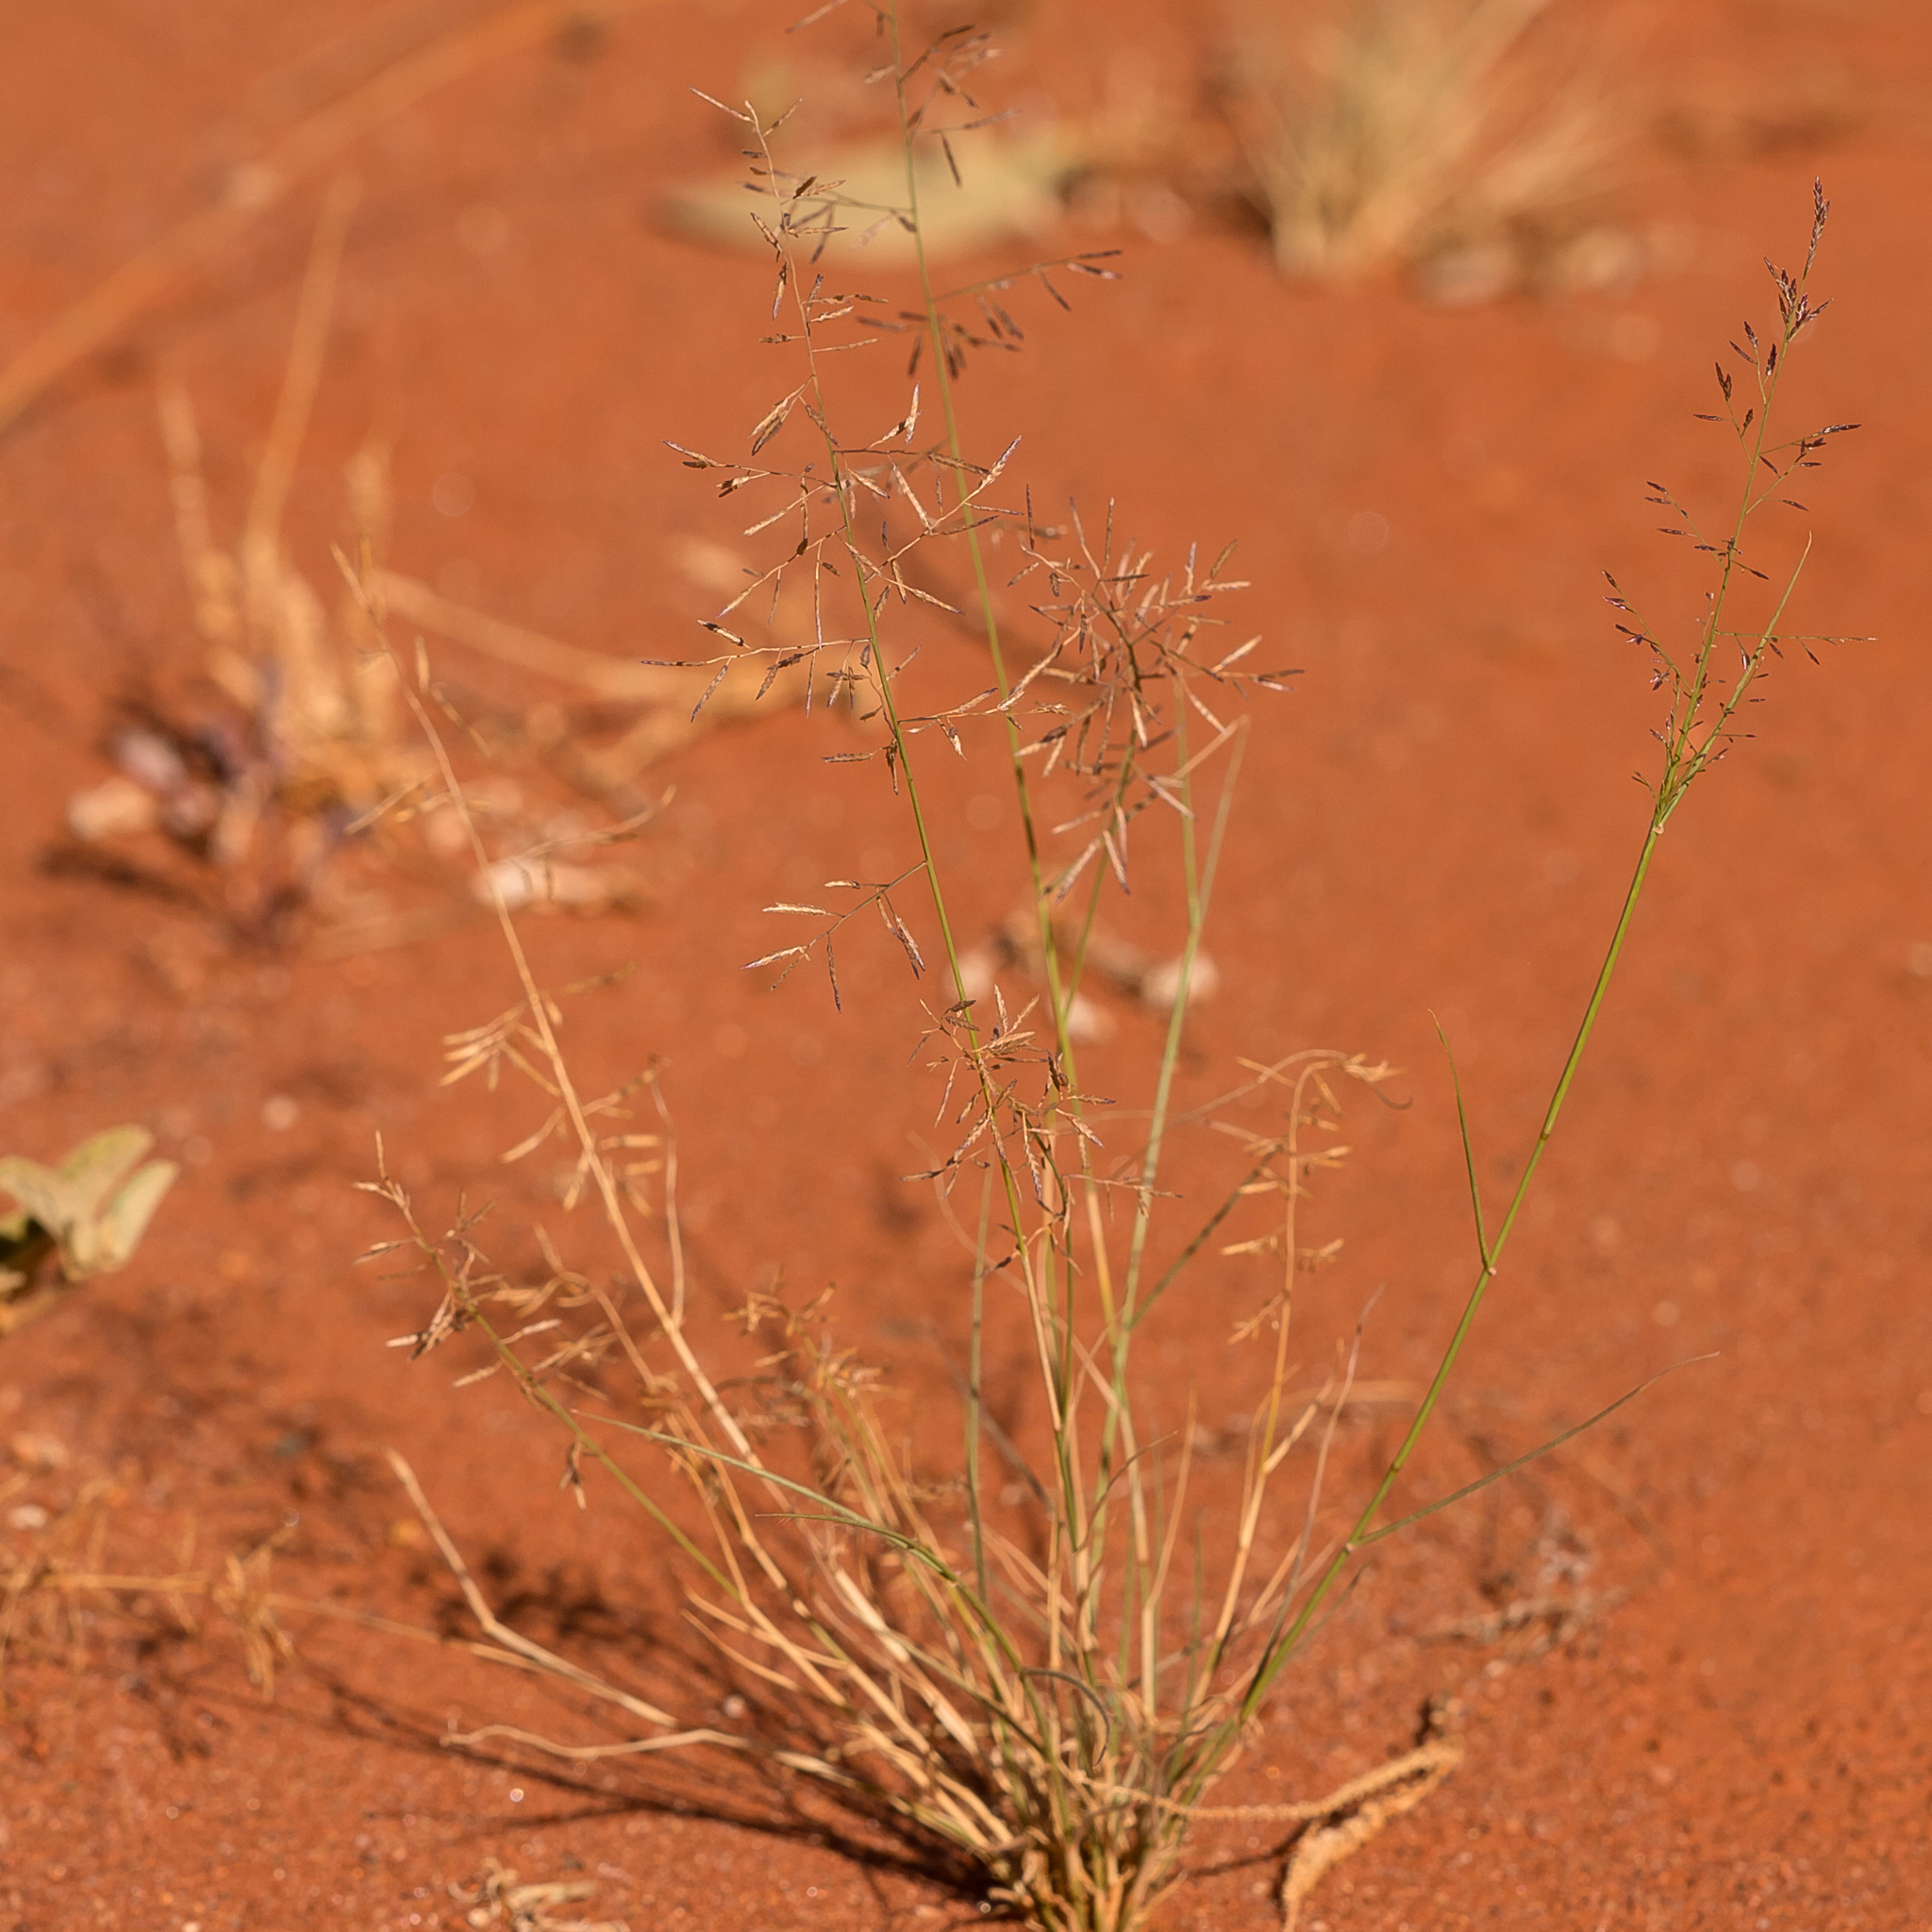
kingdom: Plantae
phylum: Tracheophyta
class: Liliopsida
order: Poales
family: Poaceae
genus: Eragrostis
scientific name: Eragrostis lacunaria
